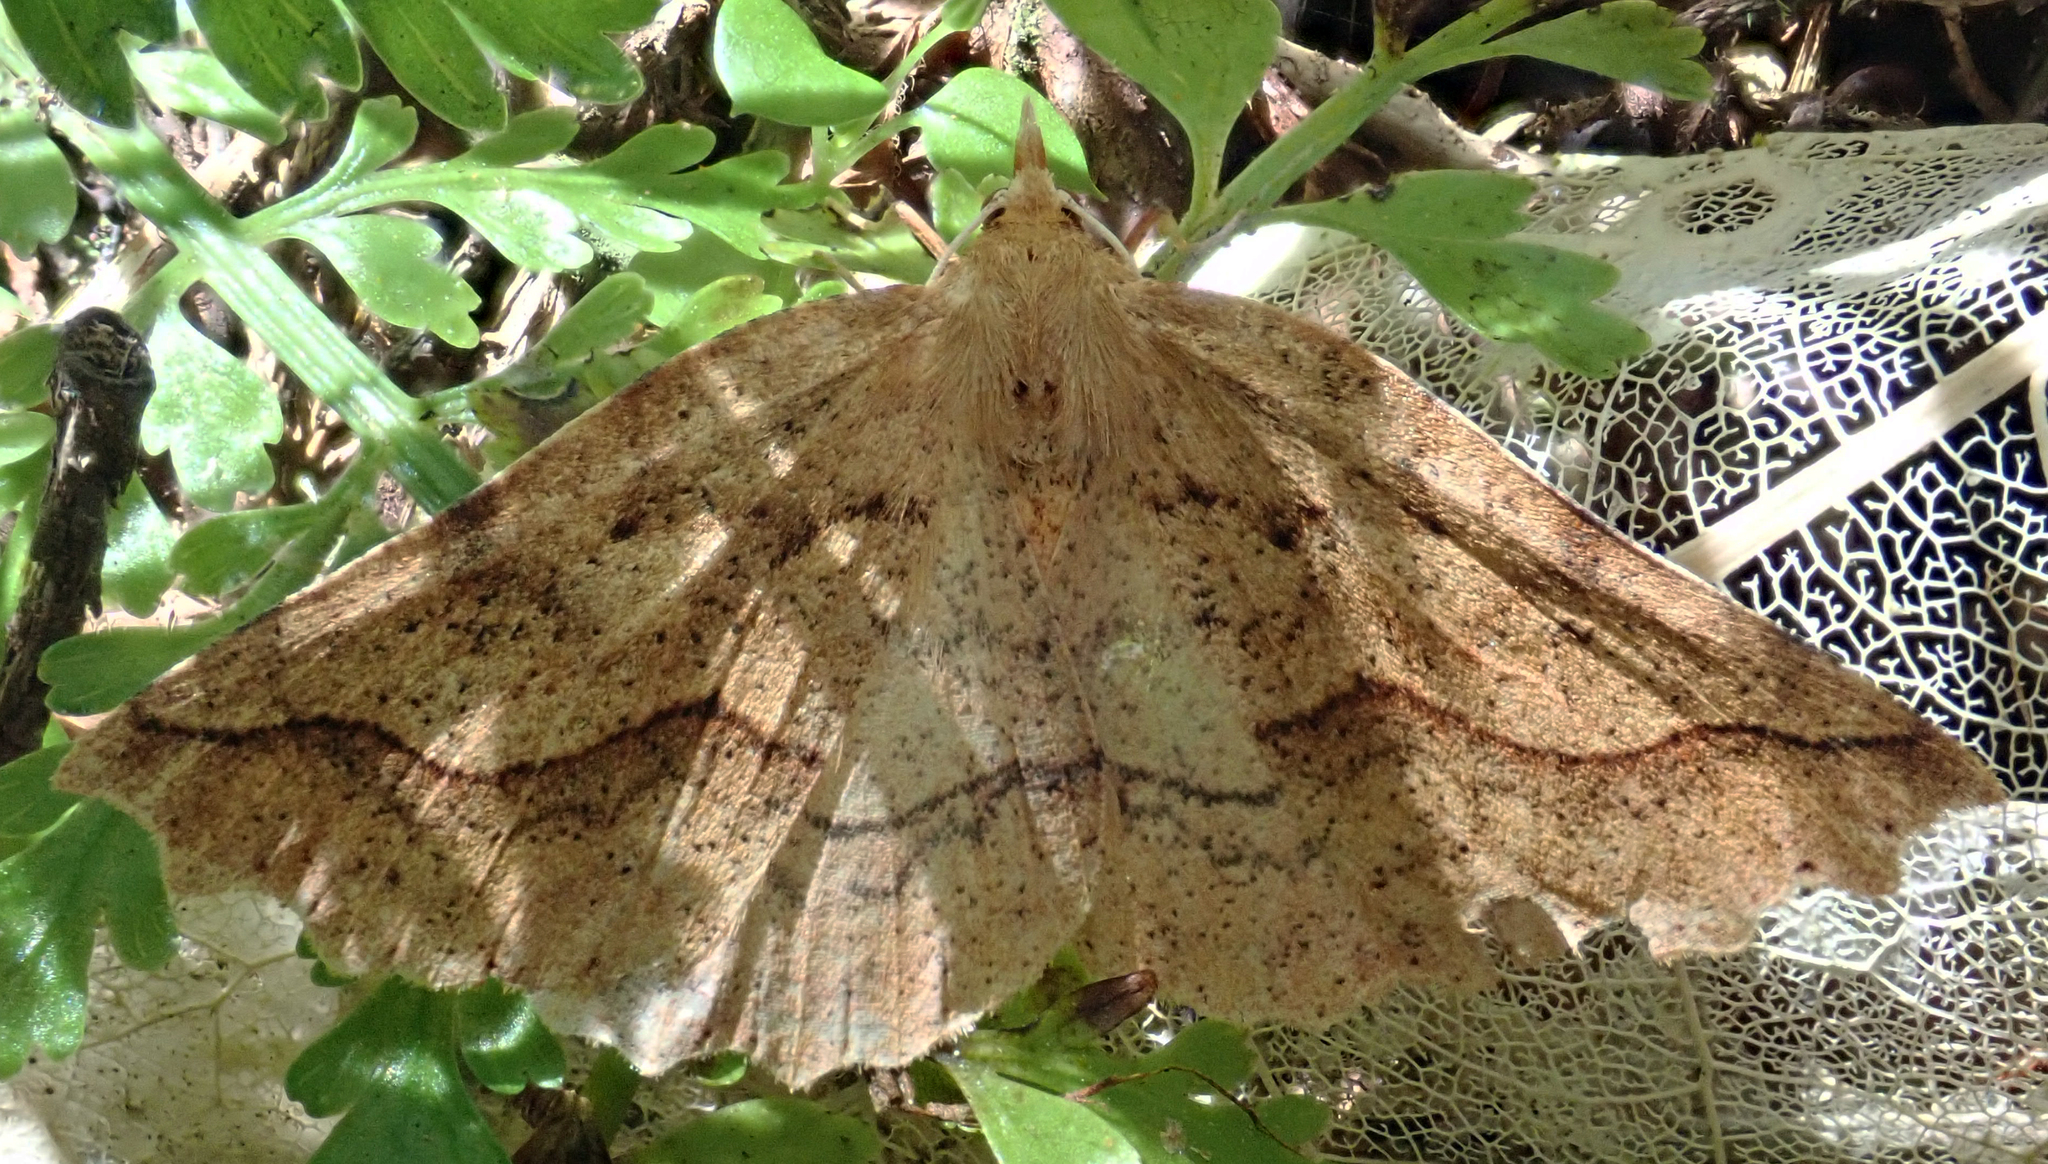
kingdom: Animalia
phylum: Arthropoda
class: Insecta
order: Lepidoptera
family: Geometridae
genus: Ischalis
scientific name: Ischalis variabilis
